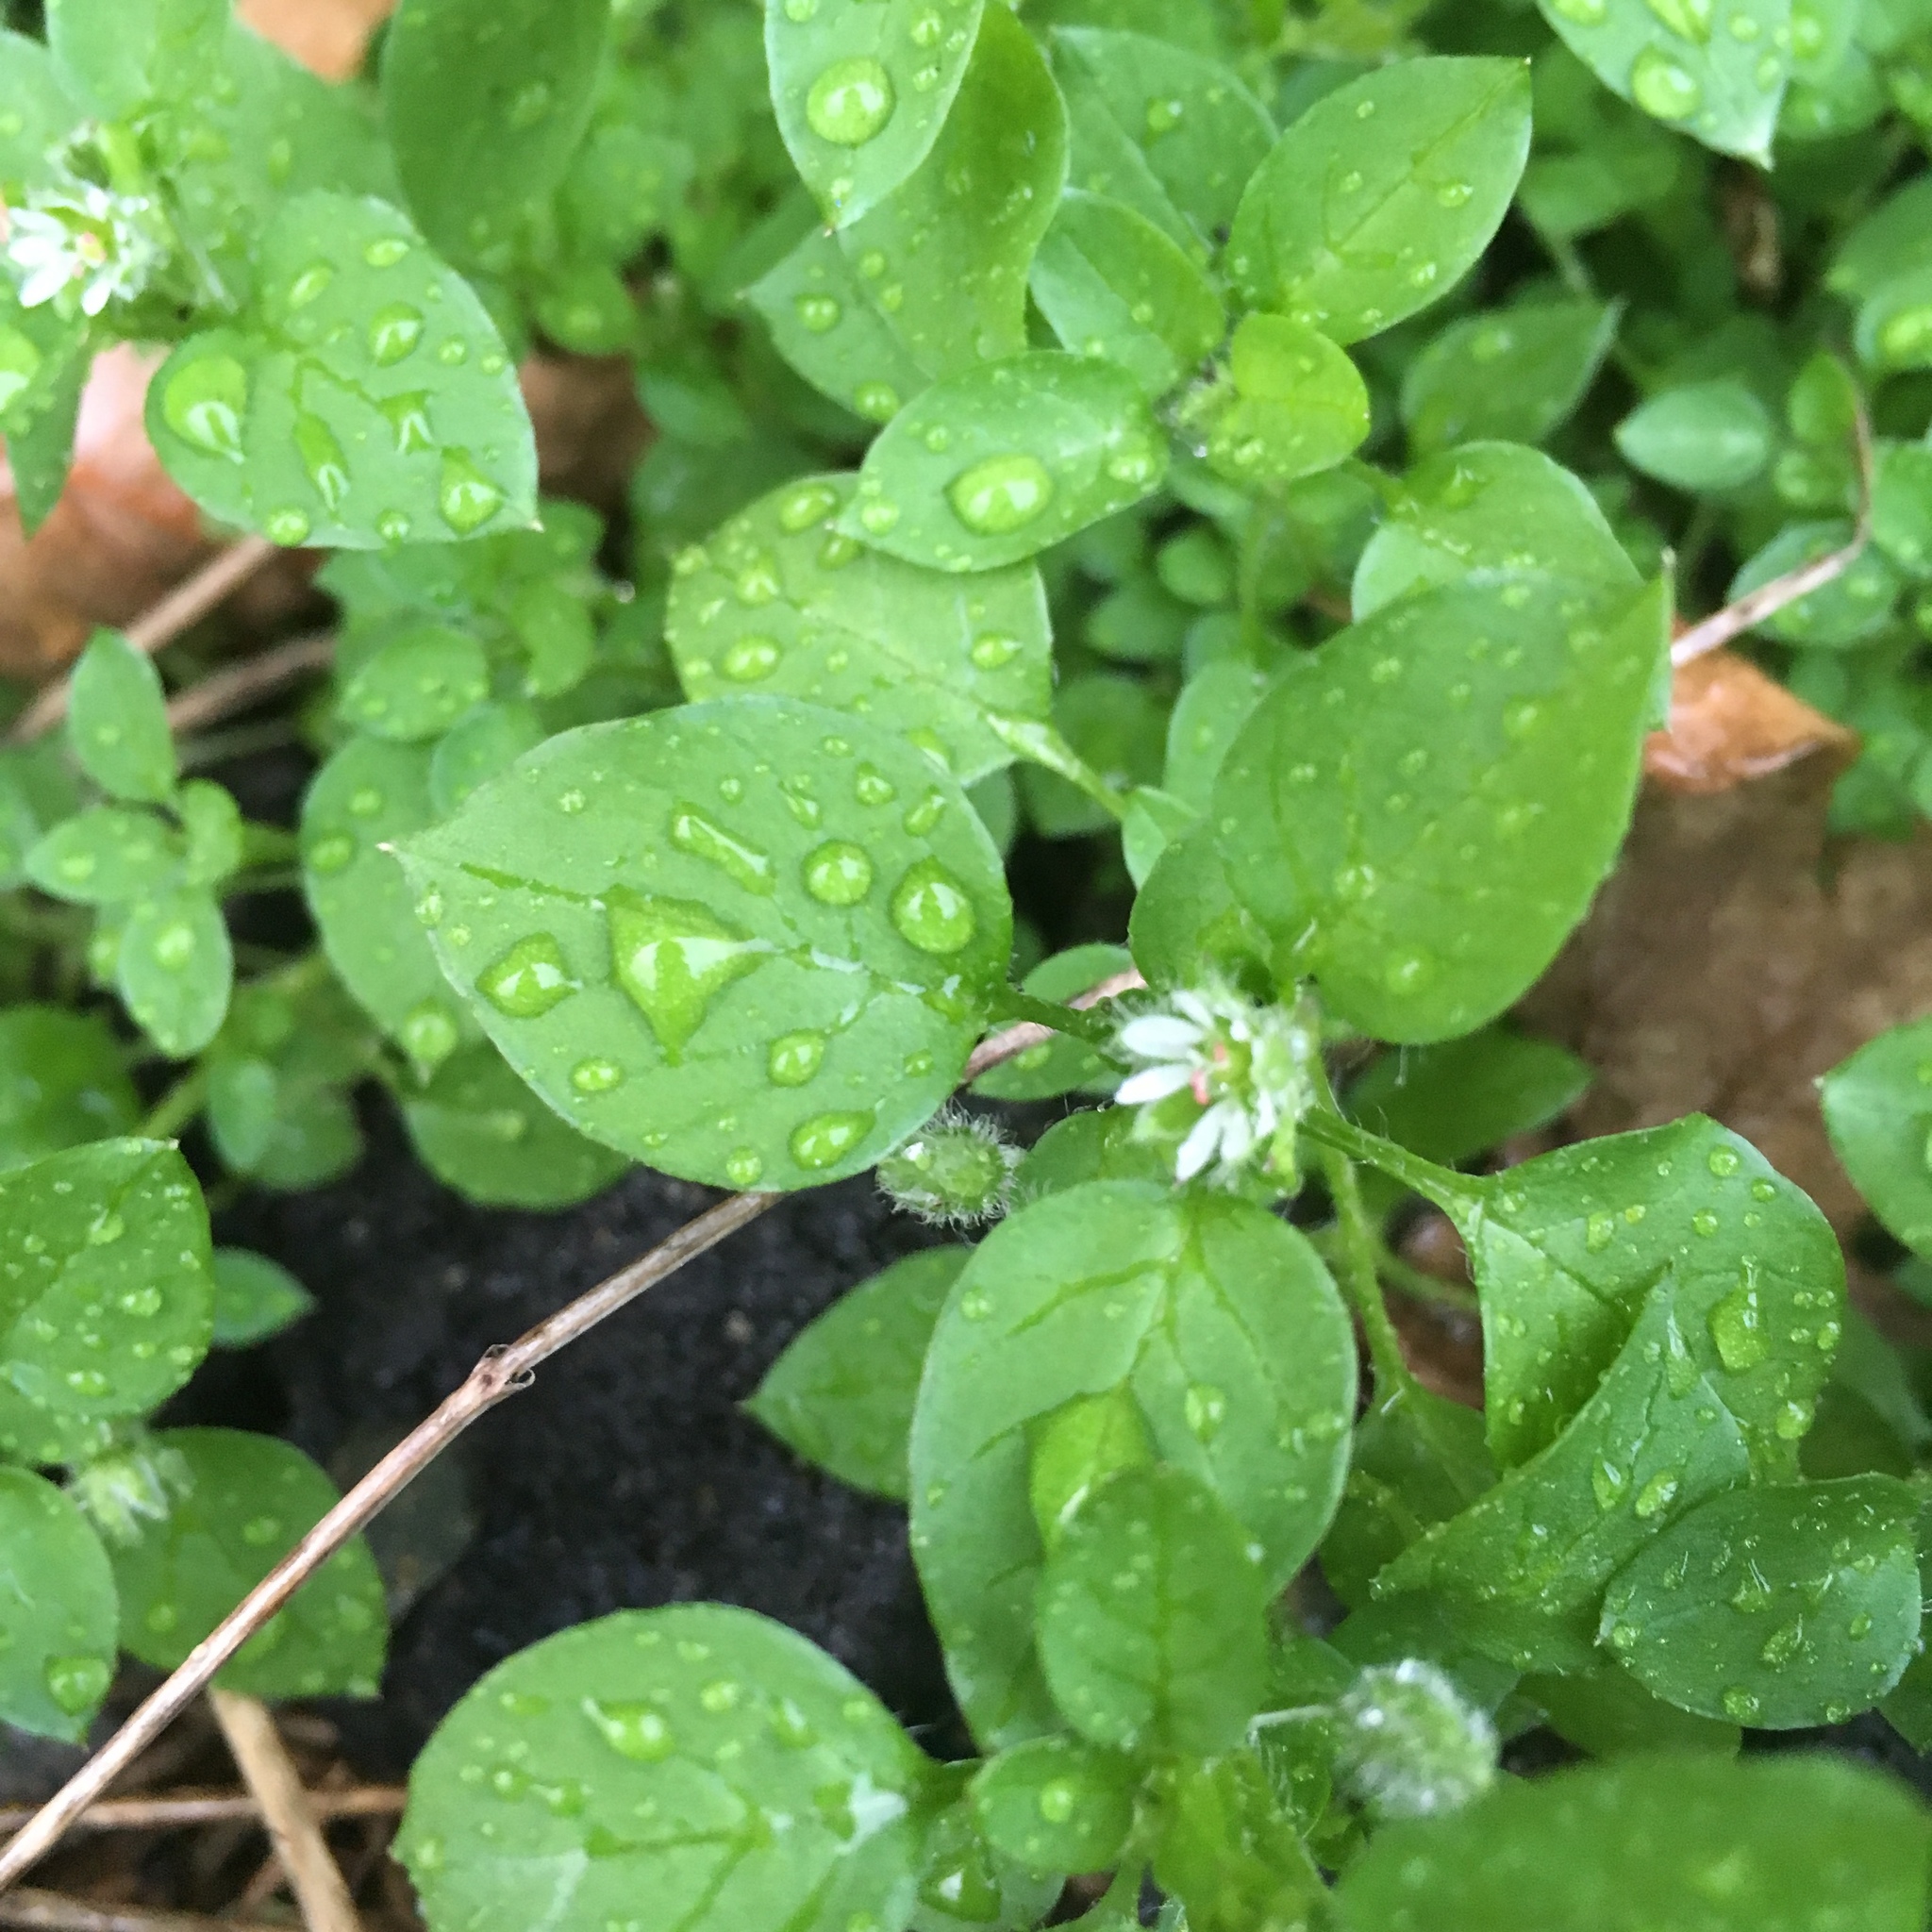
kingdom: Plantae
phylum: Tracheophyta
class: Magnoliopsida
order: Caryophyllales
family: Caryophyllaceae
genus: Stellaria
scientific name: Stellaria media
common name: Common chickweed
